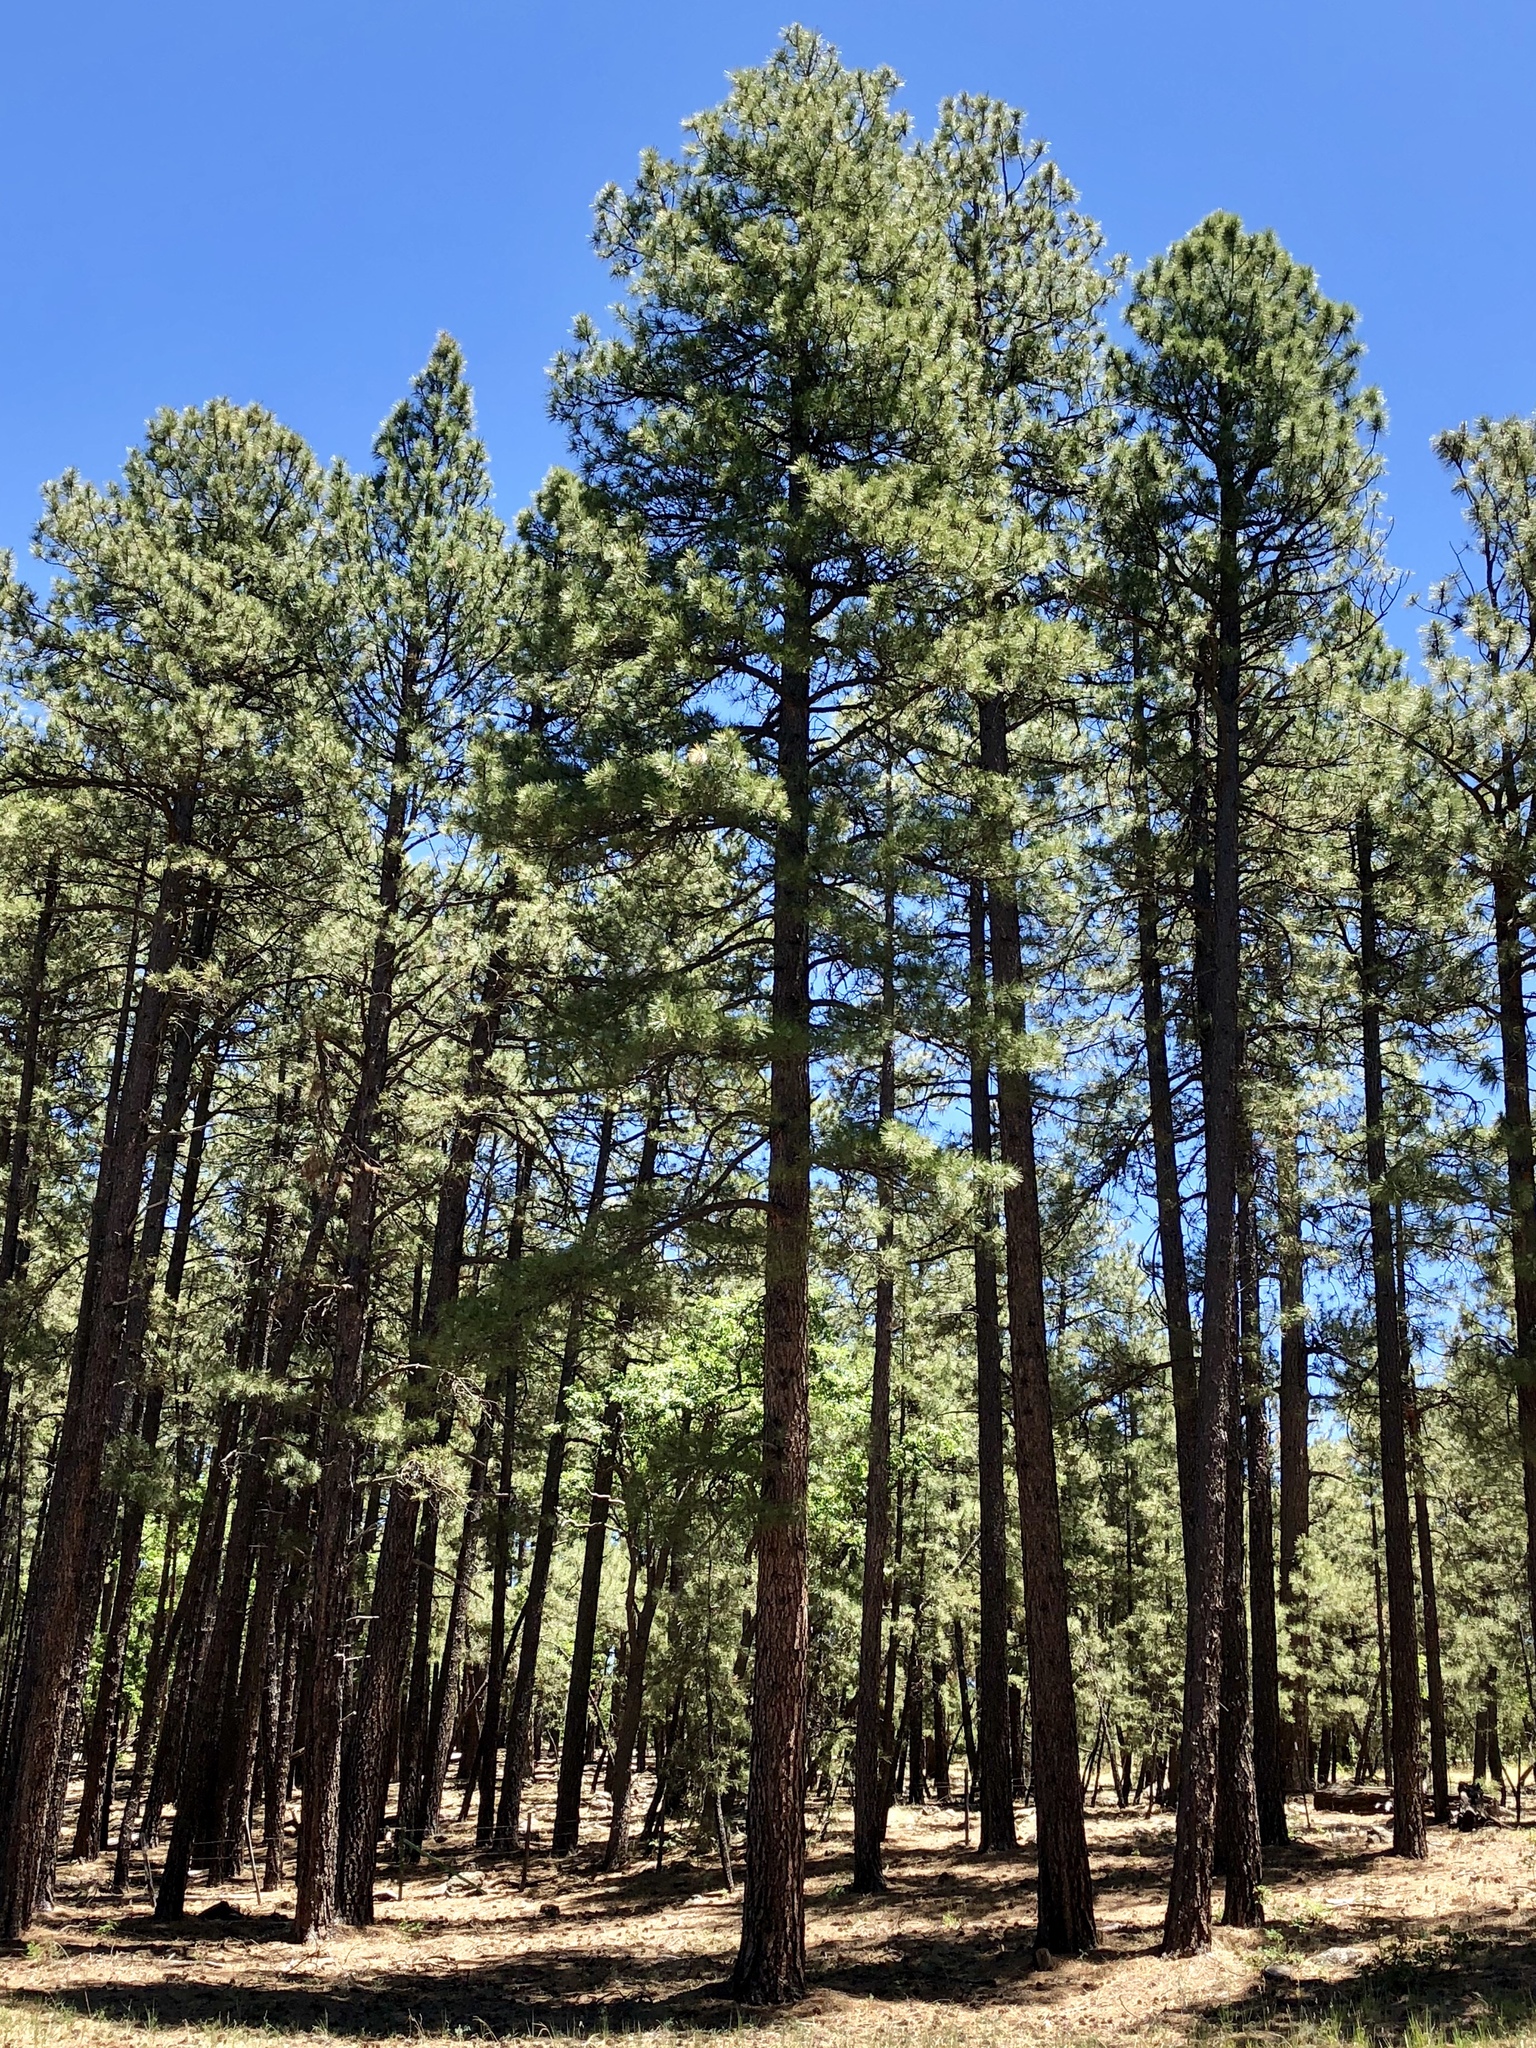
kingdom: Plantae
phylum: Tracheophyta
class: Pinopsida
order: Pinales
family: Pinaceae
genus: Pinus
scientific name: Pinus ponderosa
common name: Western yellow-pine
